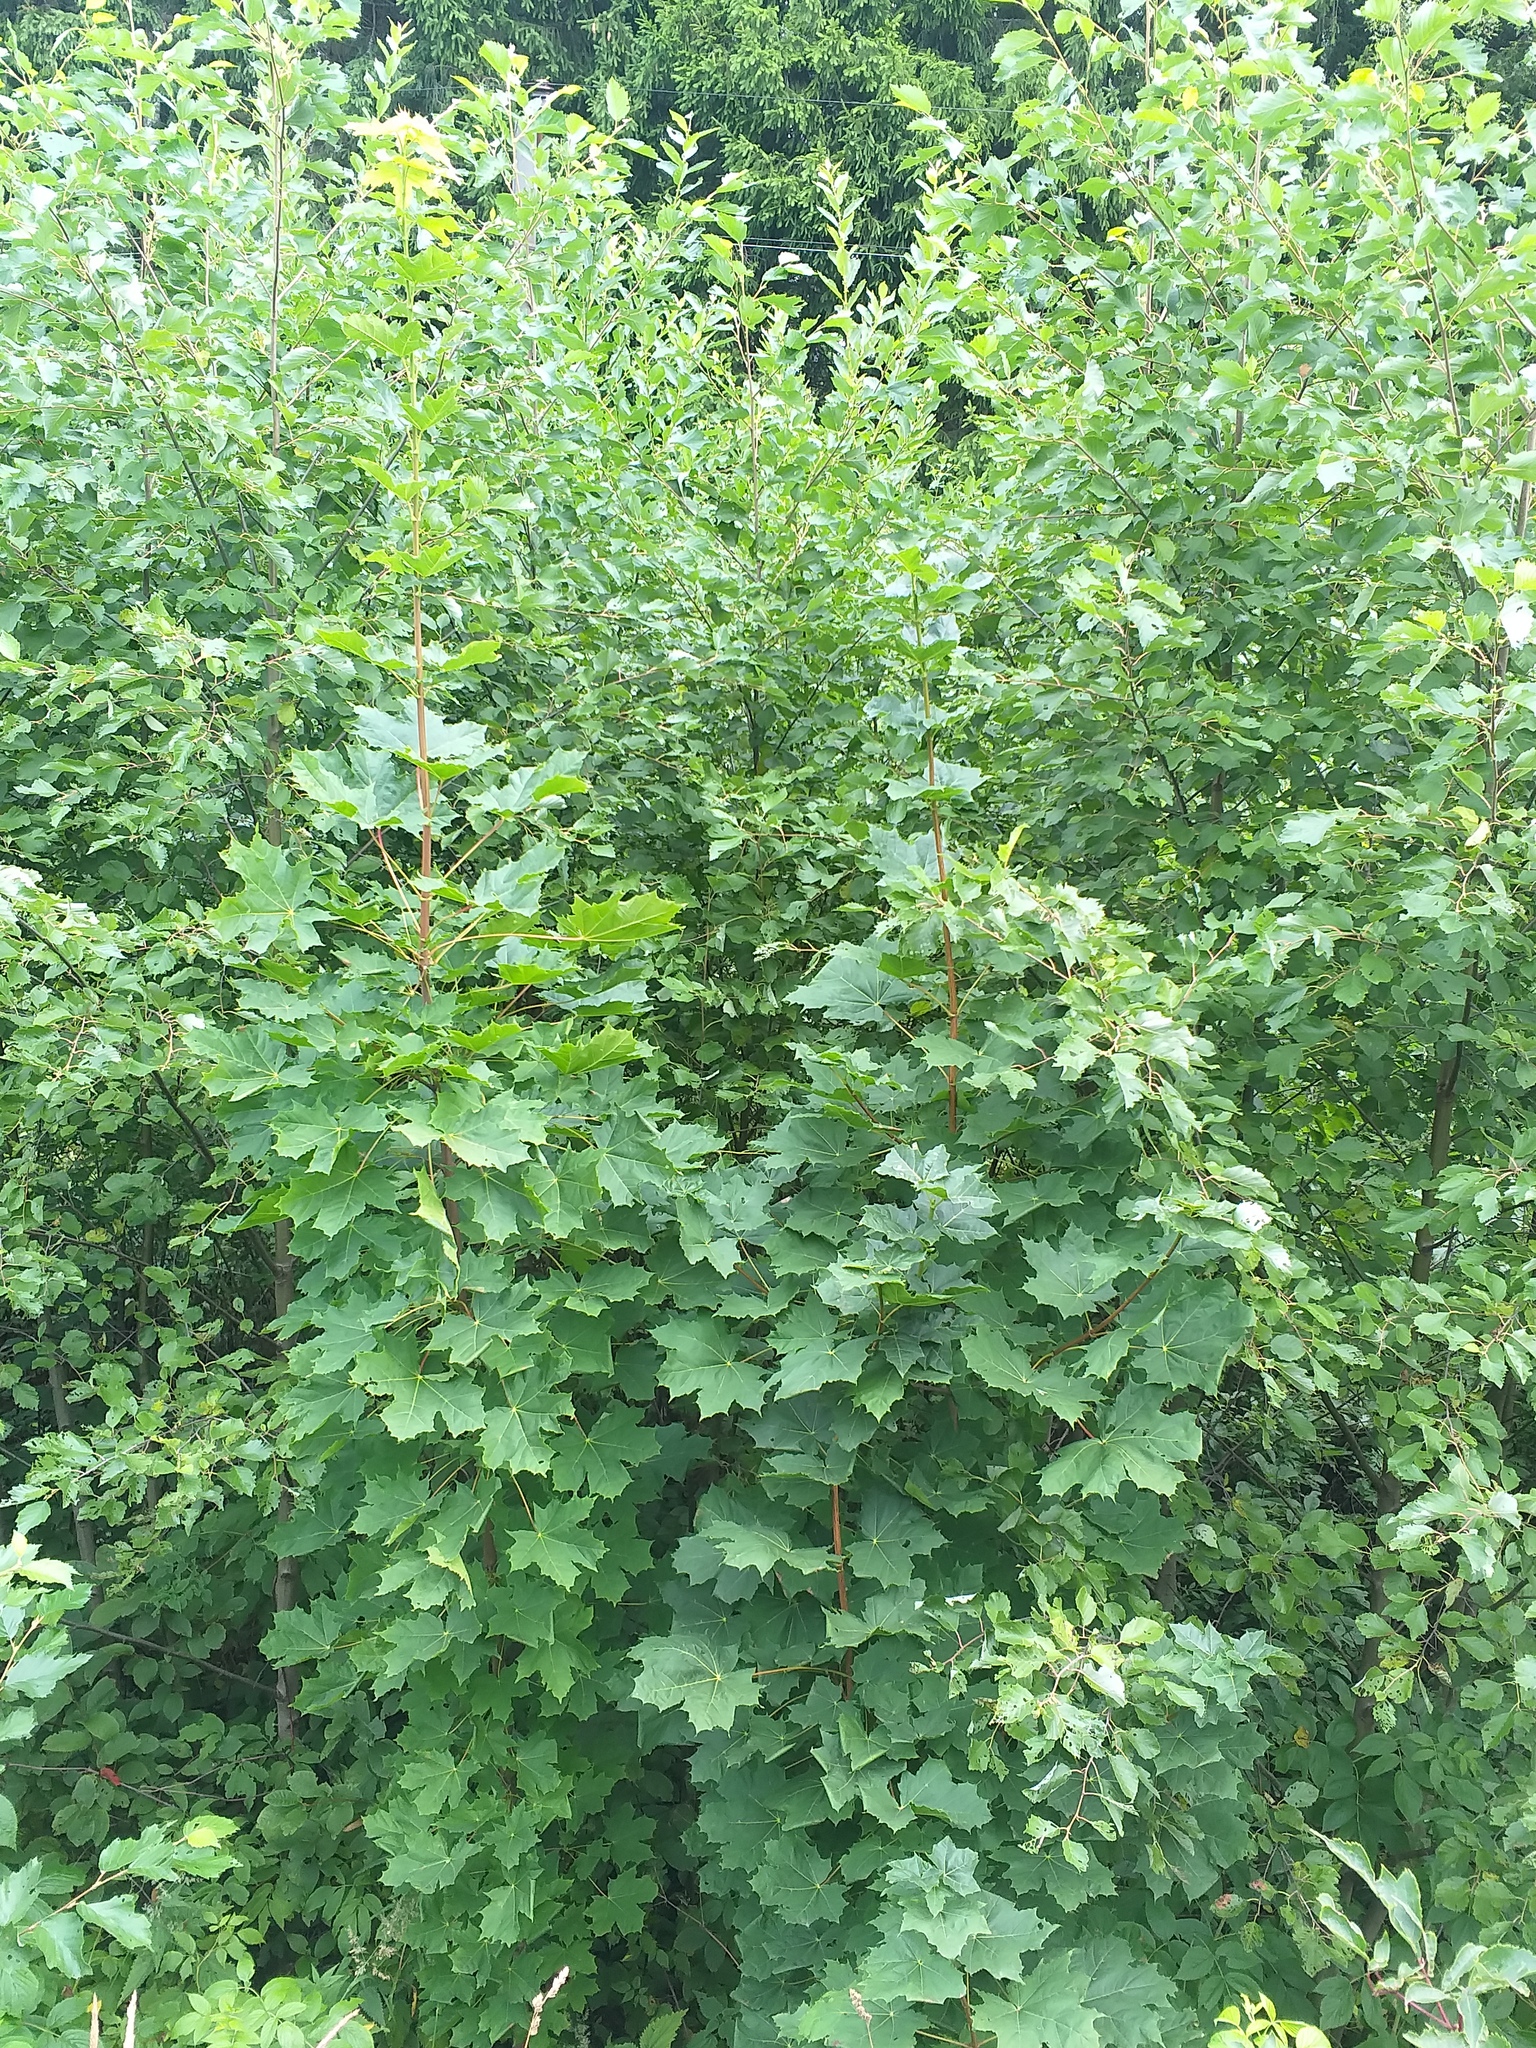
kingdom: Plantae
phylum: Tracheophyta
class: Magnoliopsida
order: Sapindales
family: Sapindaceae
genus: Acer
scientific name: Acer platanoides
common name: Norway maple
